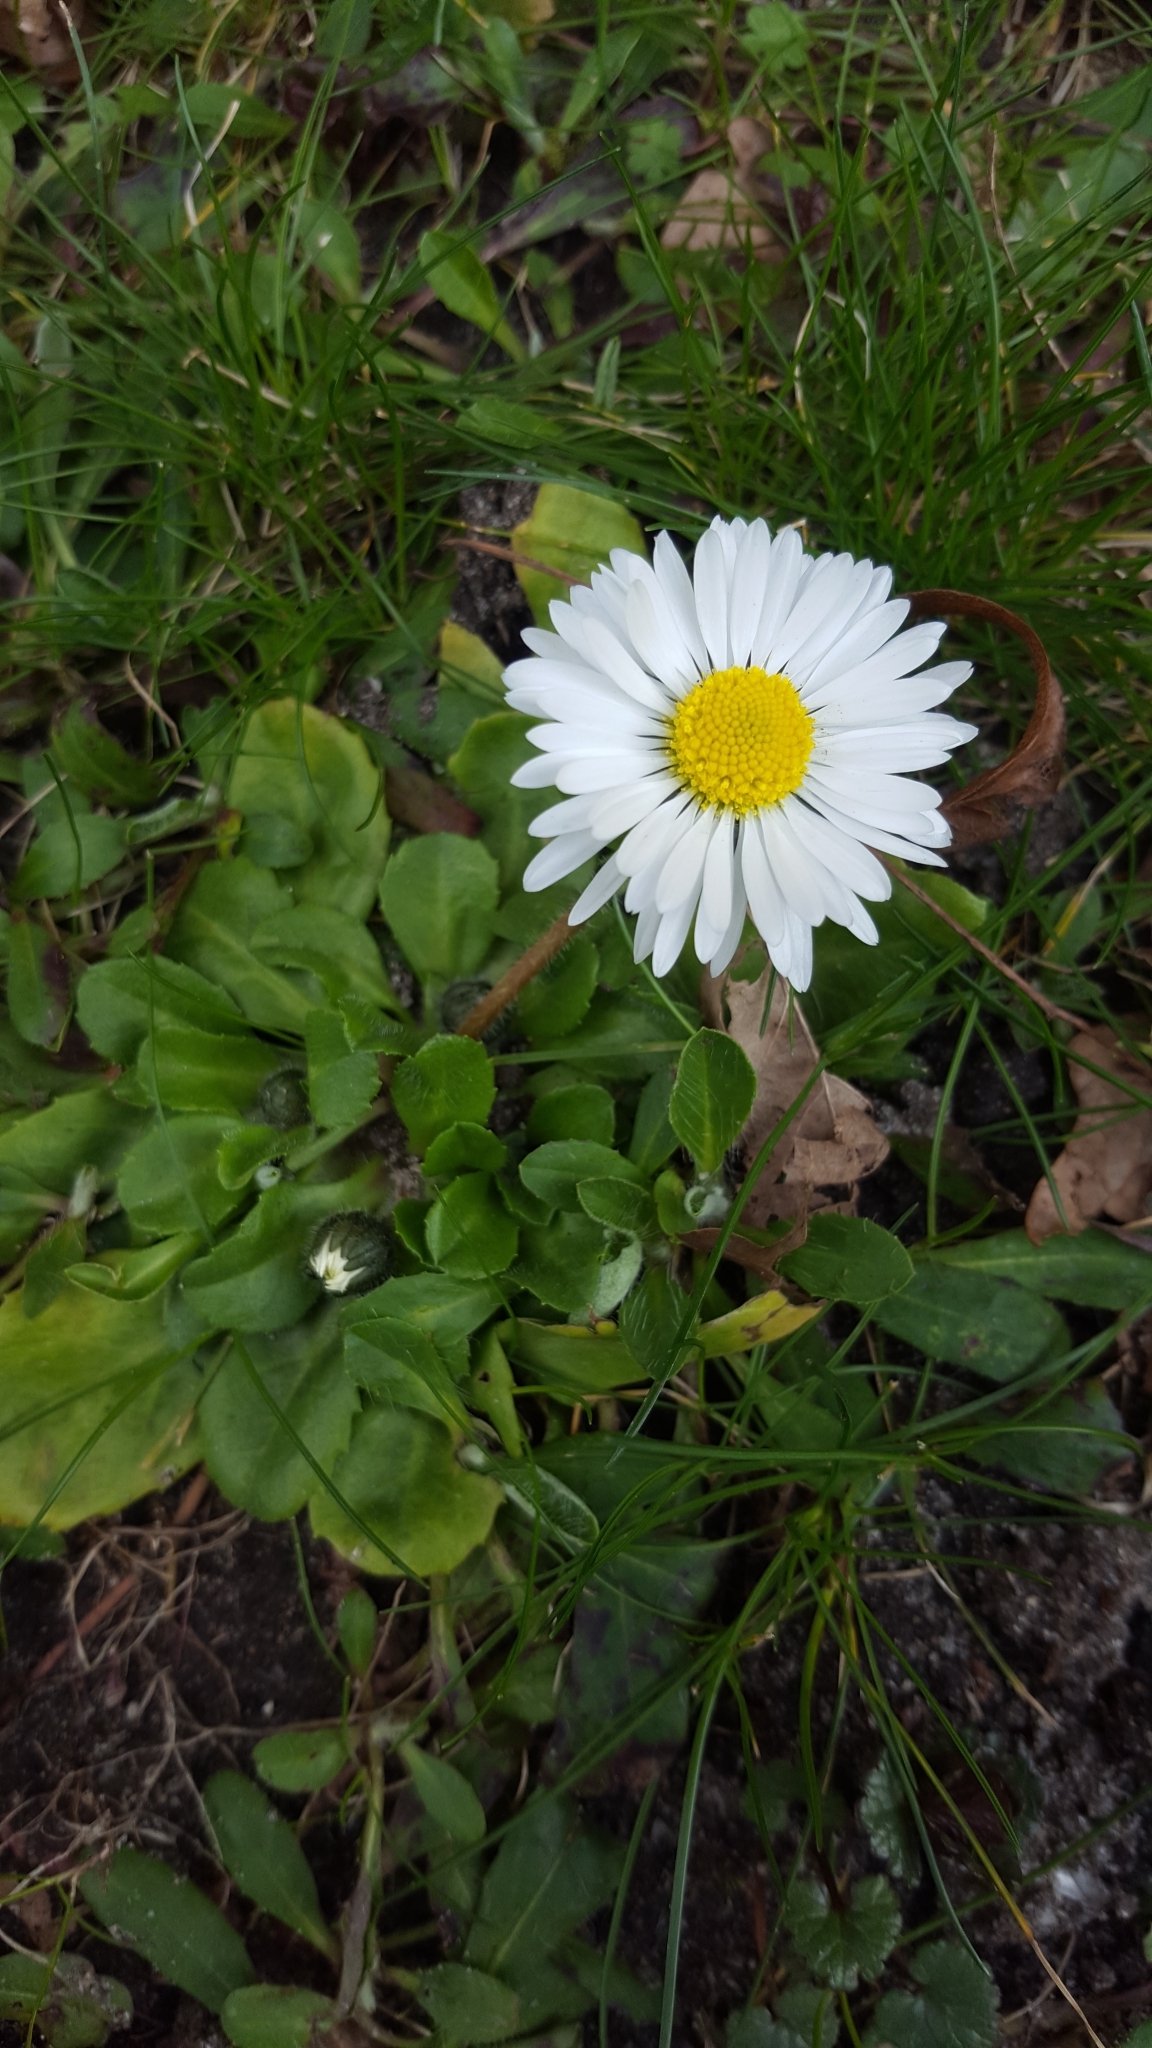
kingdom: Plantae
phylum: Tracheophyta
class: Magnoliopsida
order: Asterales
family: Asteraceae
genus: Bellis
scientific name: Bellis perennis
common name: Lawndaisy
